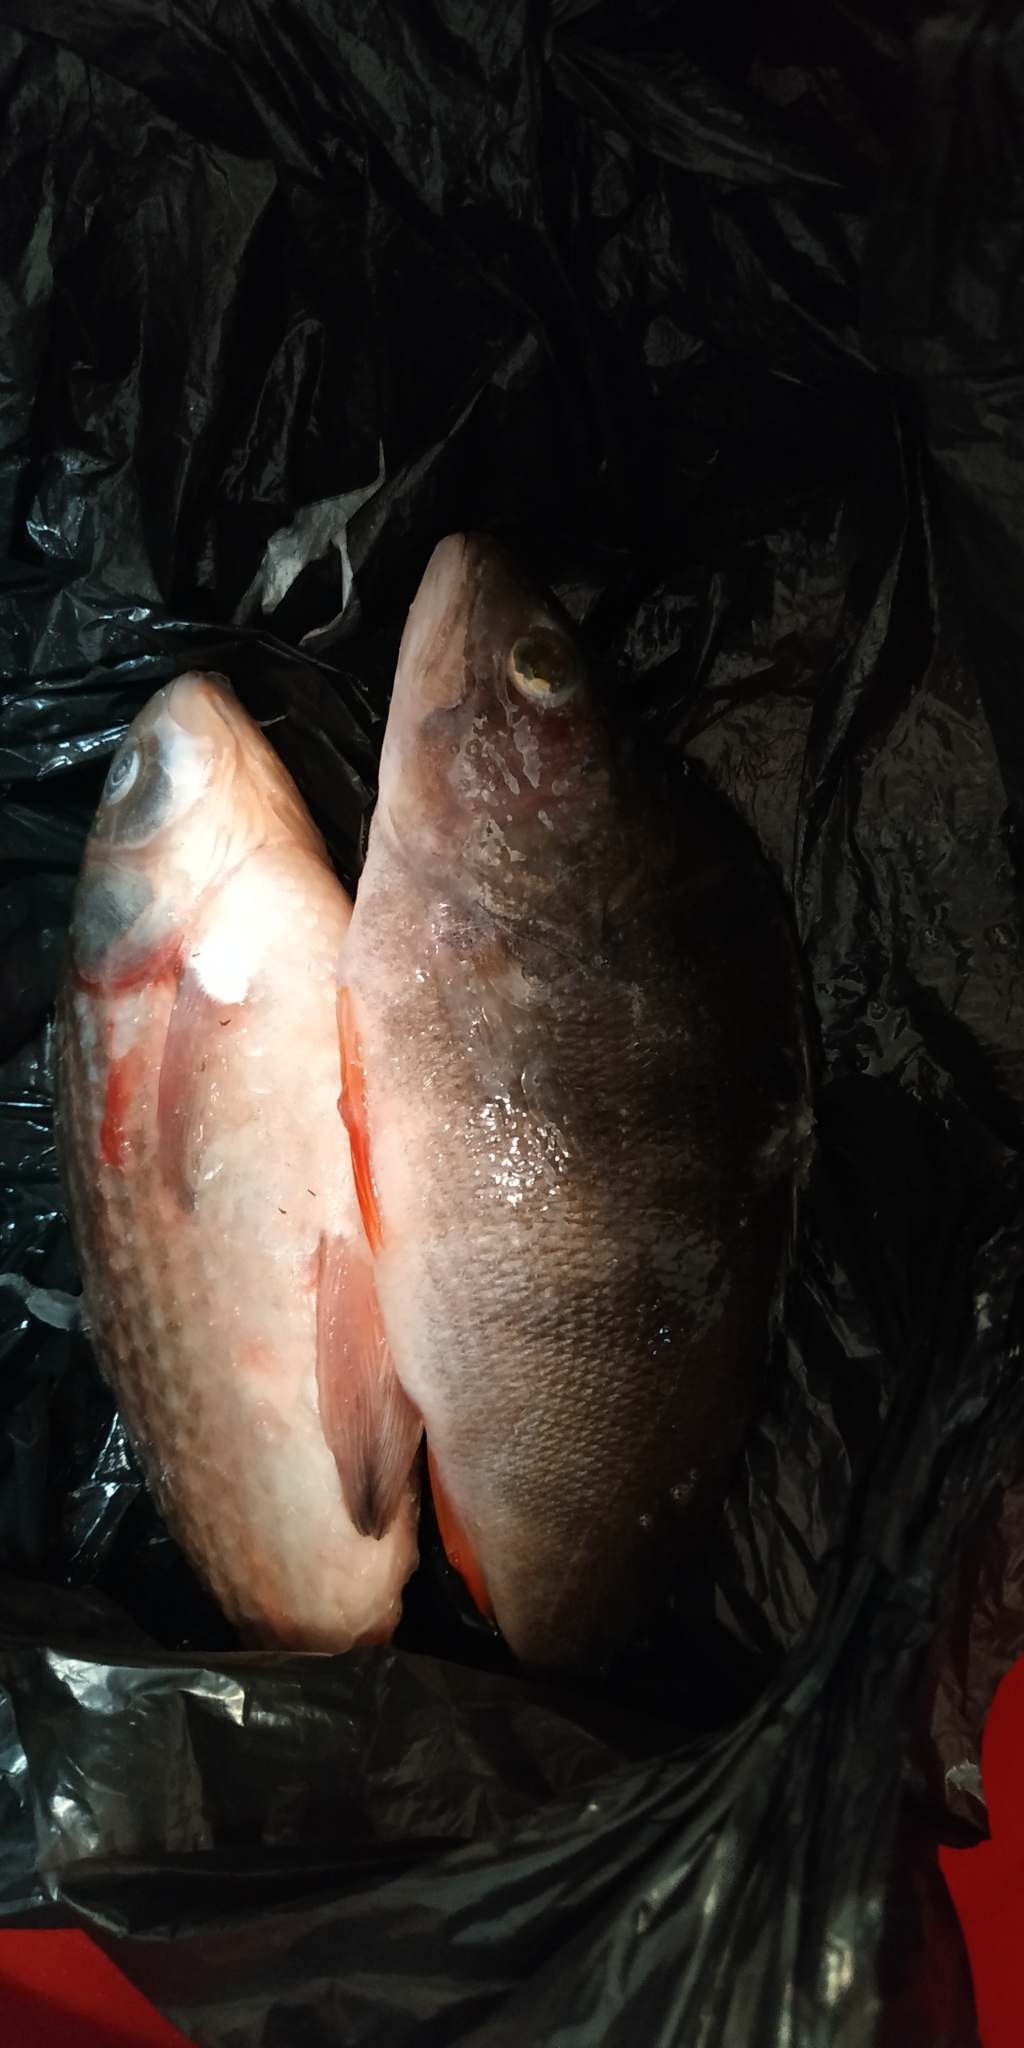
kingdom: Animalia
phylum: Chordata
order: Perciformes
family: Percidae
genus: Perca
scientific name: Perca fluviatilis
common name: Perch
